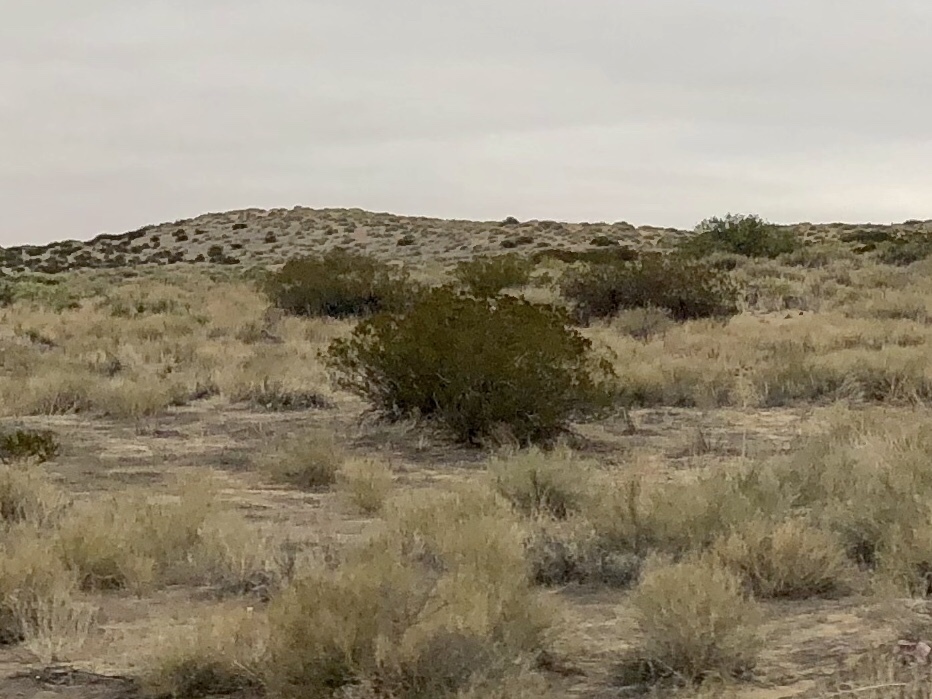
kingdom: Plantae
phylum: Tracheophyta
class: Magnoliopsida
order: Zygophyllales
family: Zygophyllaceae
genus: Larrea
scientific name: Larrea tridentata
